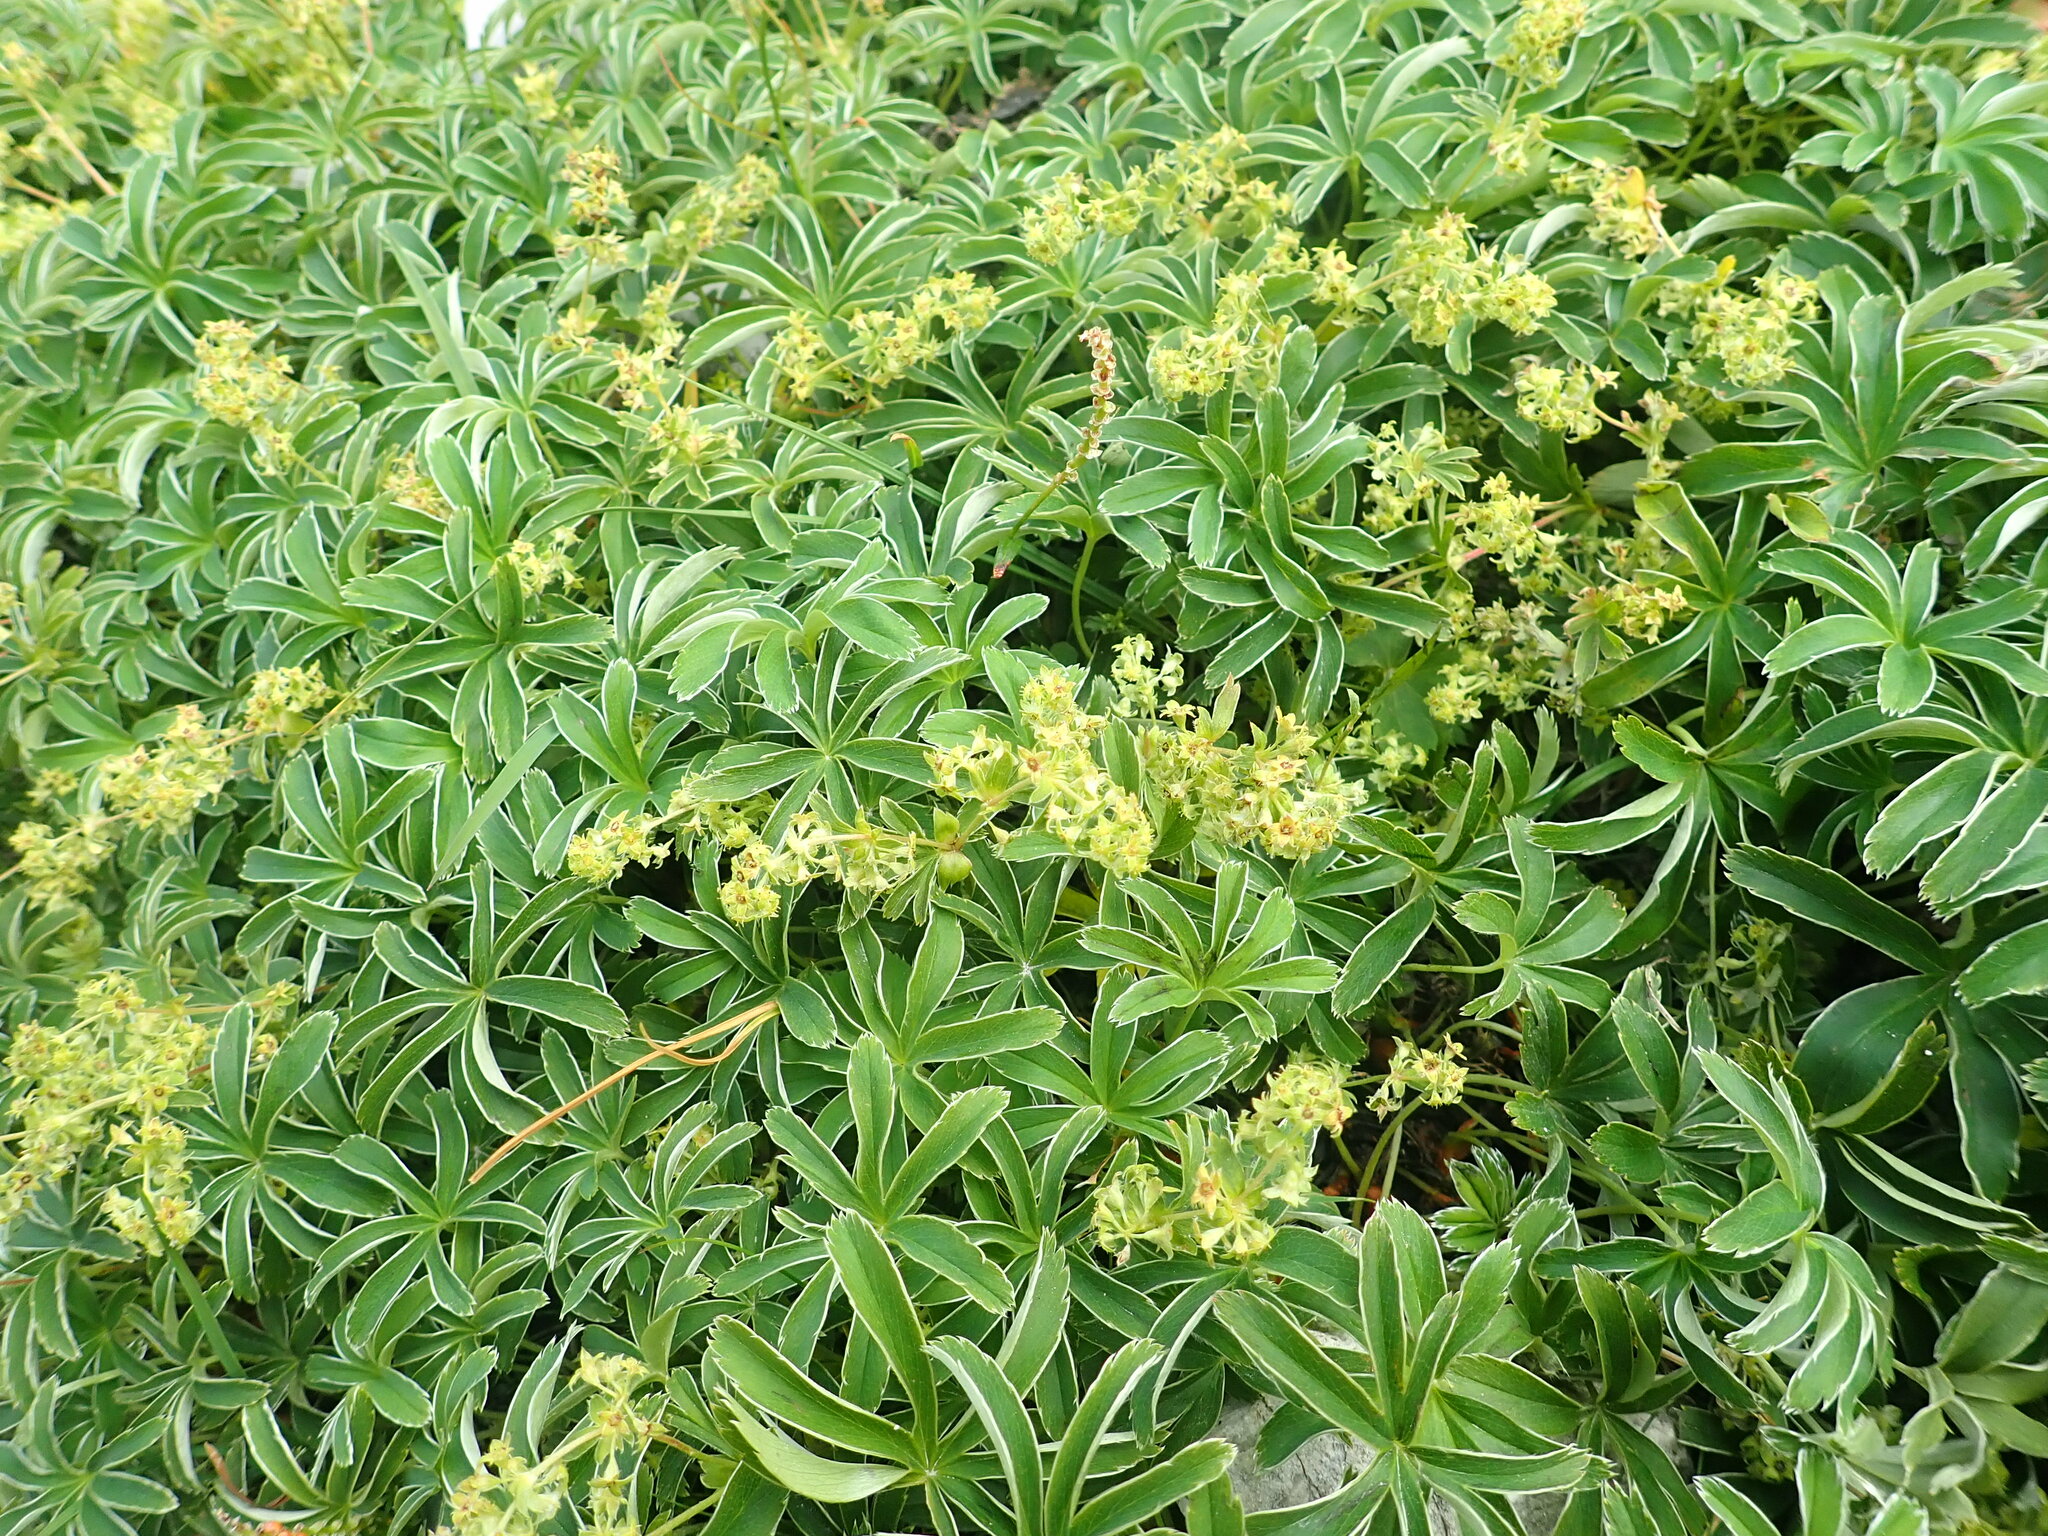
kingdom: Plantae
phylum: Tracheophyta
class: Magnoliopsida
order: Rosales
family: Rosaceae
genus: Alchemilla
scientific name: Alchemilla alpina
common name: Alpine lady's-mantle
